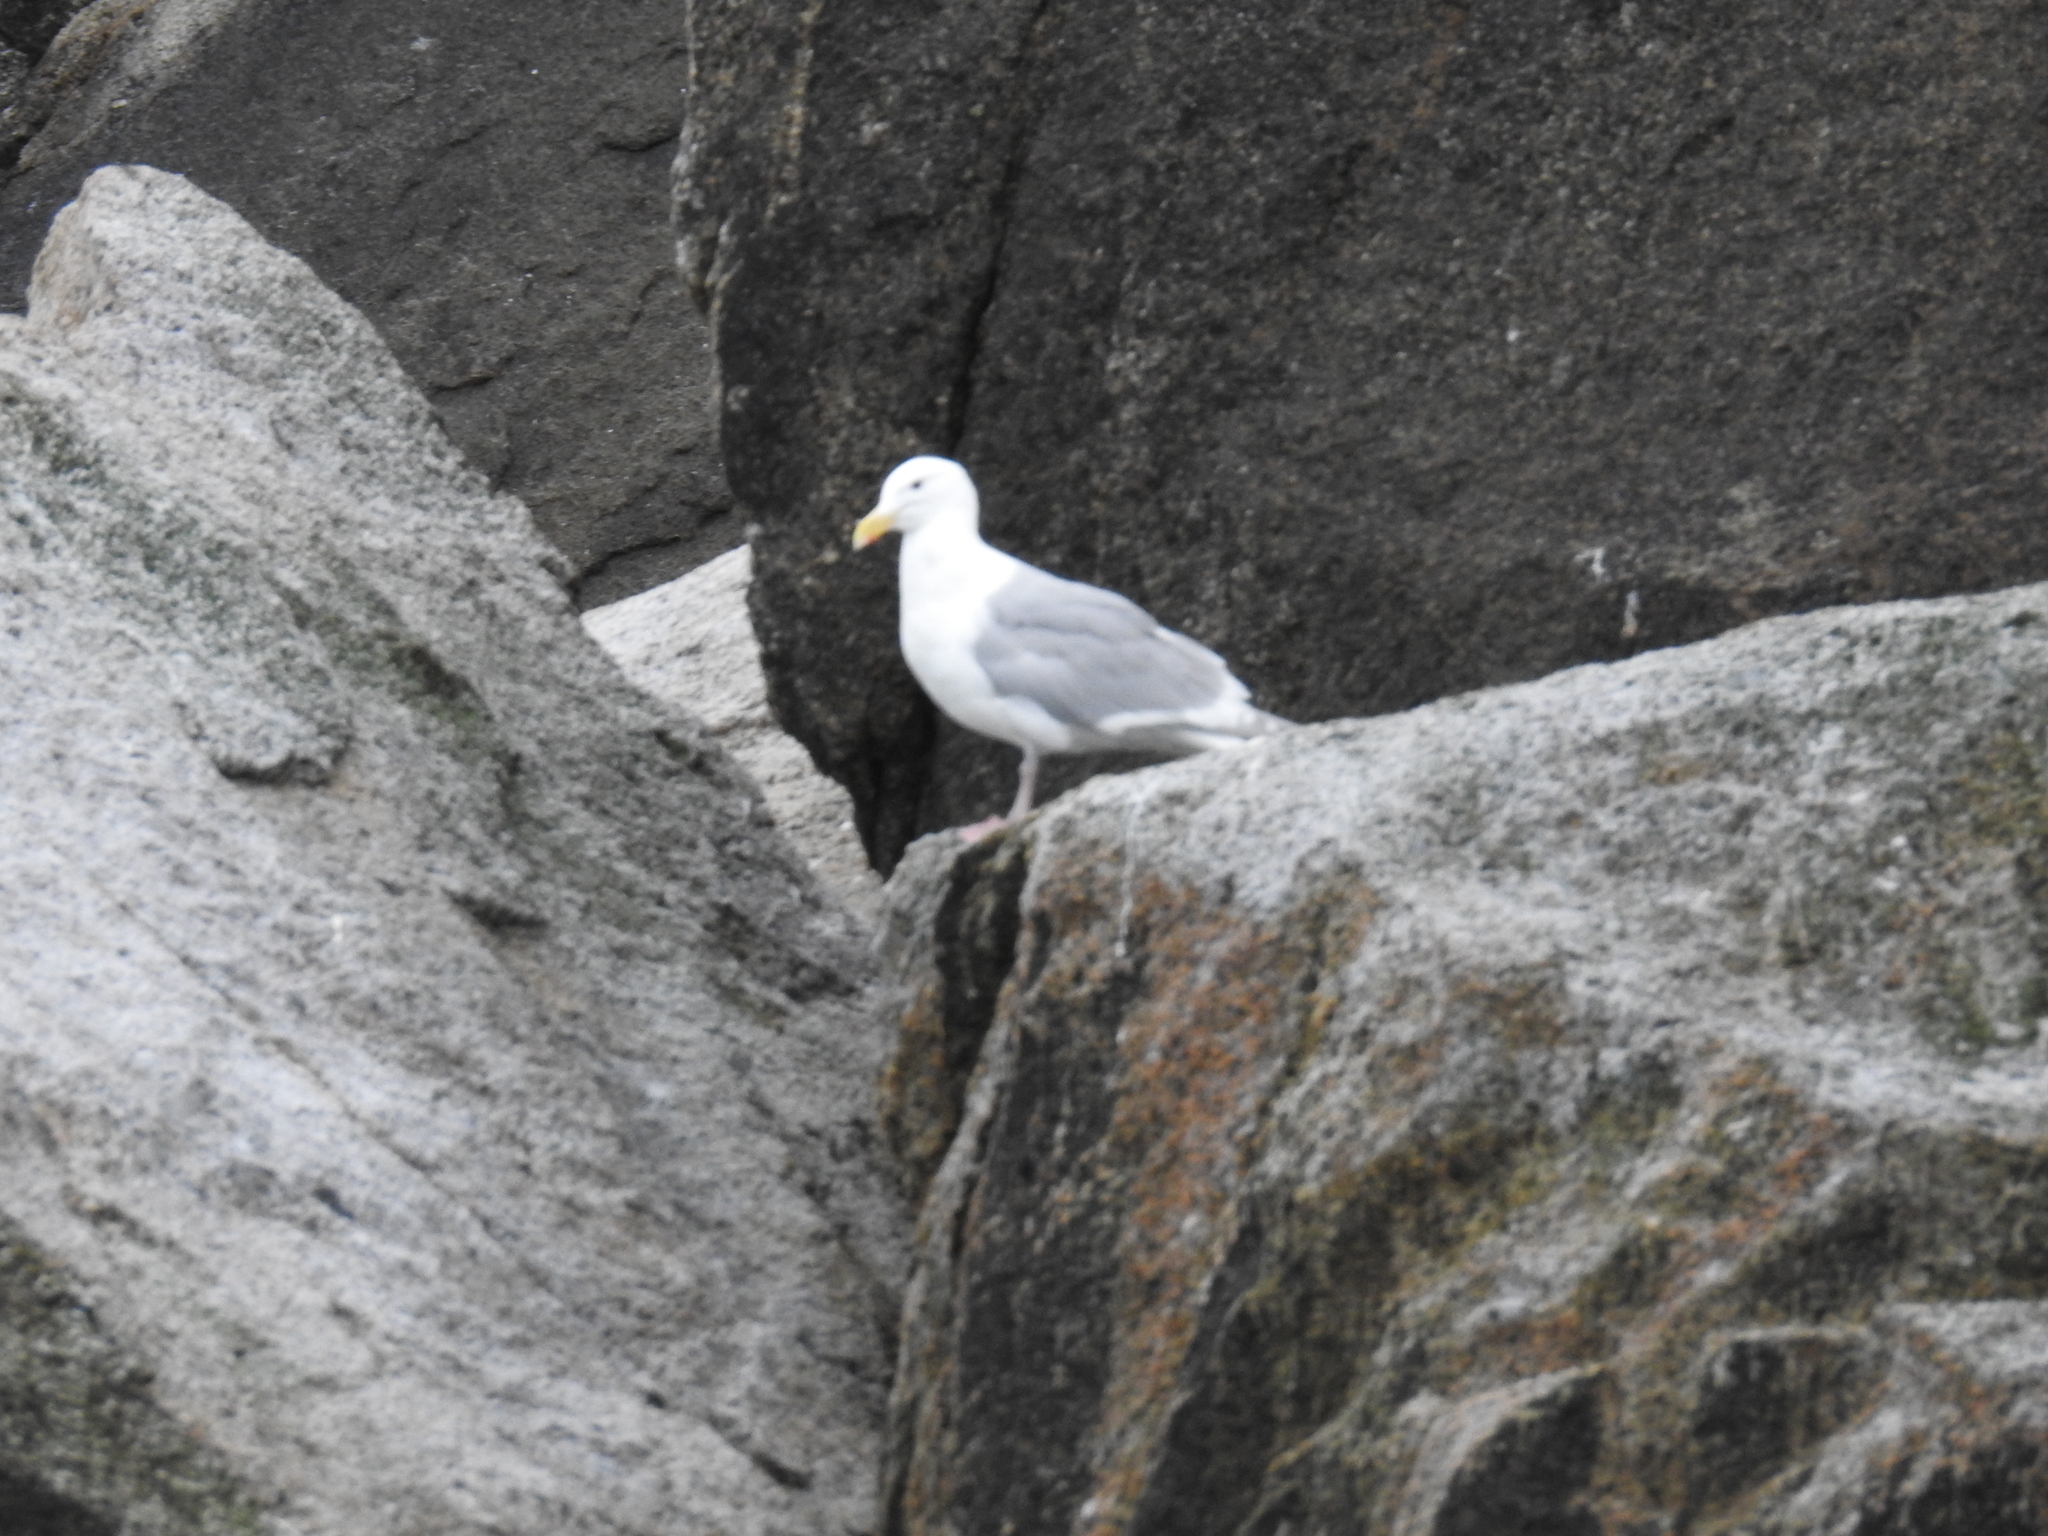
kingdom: Animalia
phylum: Chordata
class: Aves
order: Charadriiformes
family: Laridae
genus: Larus
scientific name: Larus glaucescens
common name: Glaucous-winged gull
